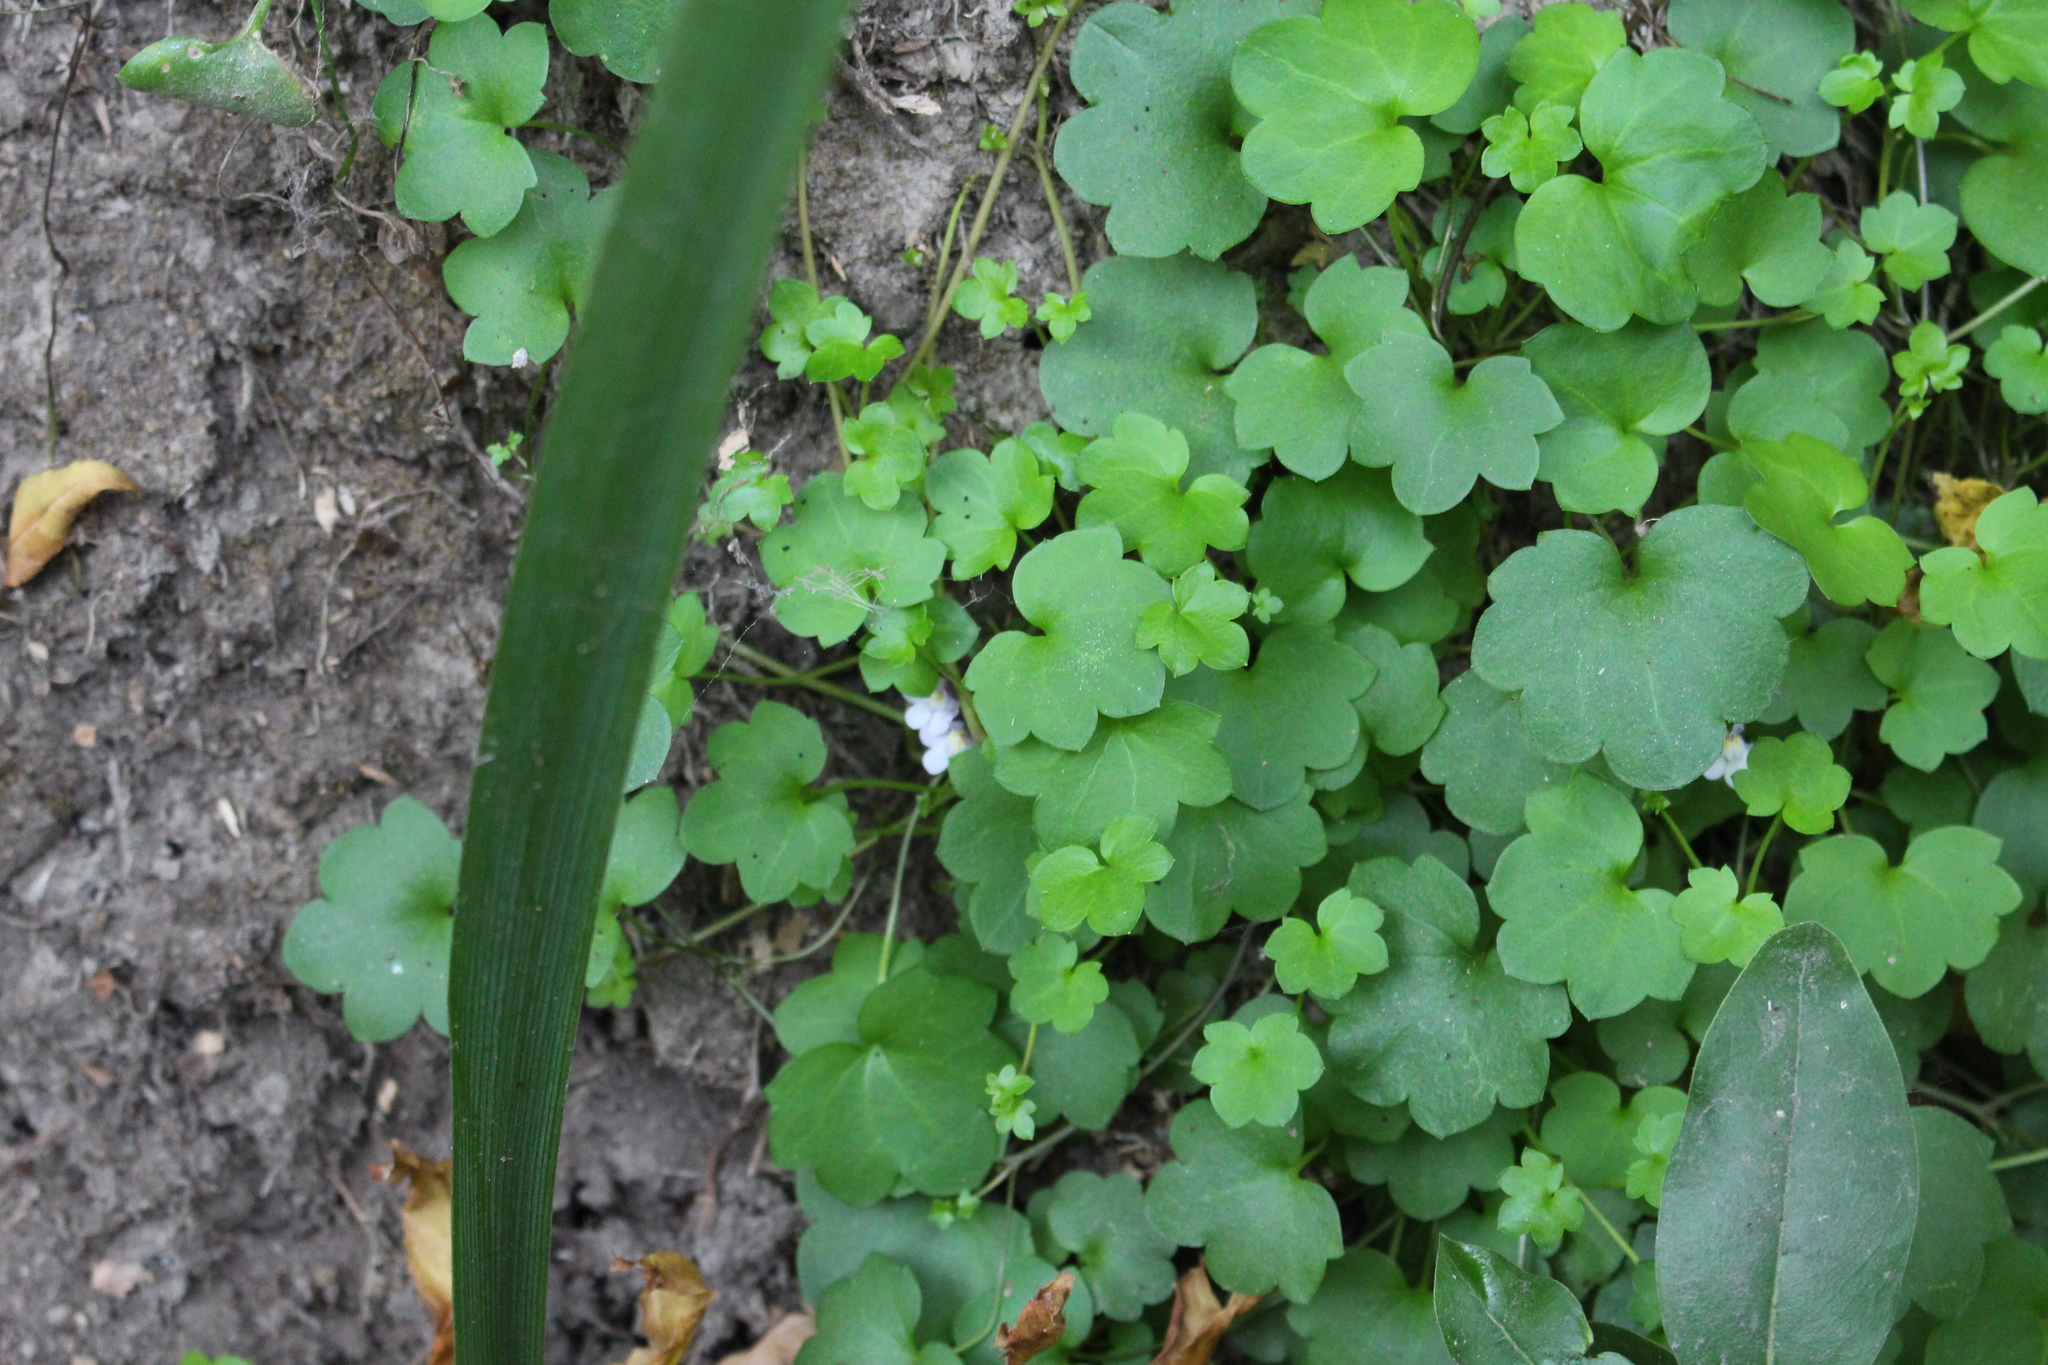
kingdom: Plantae
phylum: Tracheophyta
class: Magnoliopsida
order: Lamiales
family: Plantaginaceae
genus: Cymbalaria
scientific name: Cymbalaria muralis
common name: Ivy-leaved toadflax
